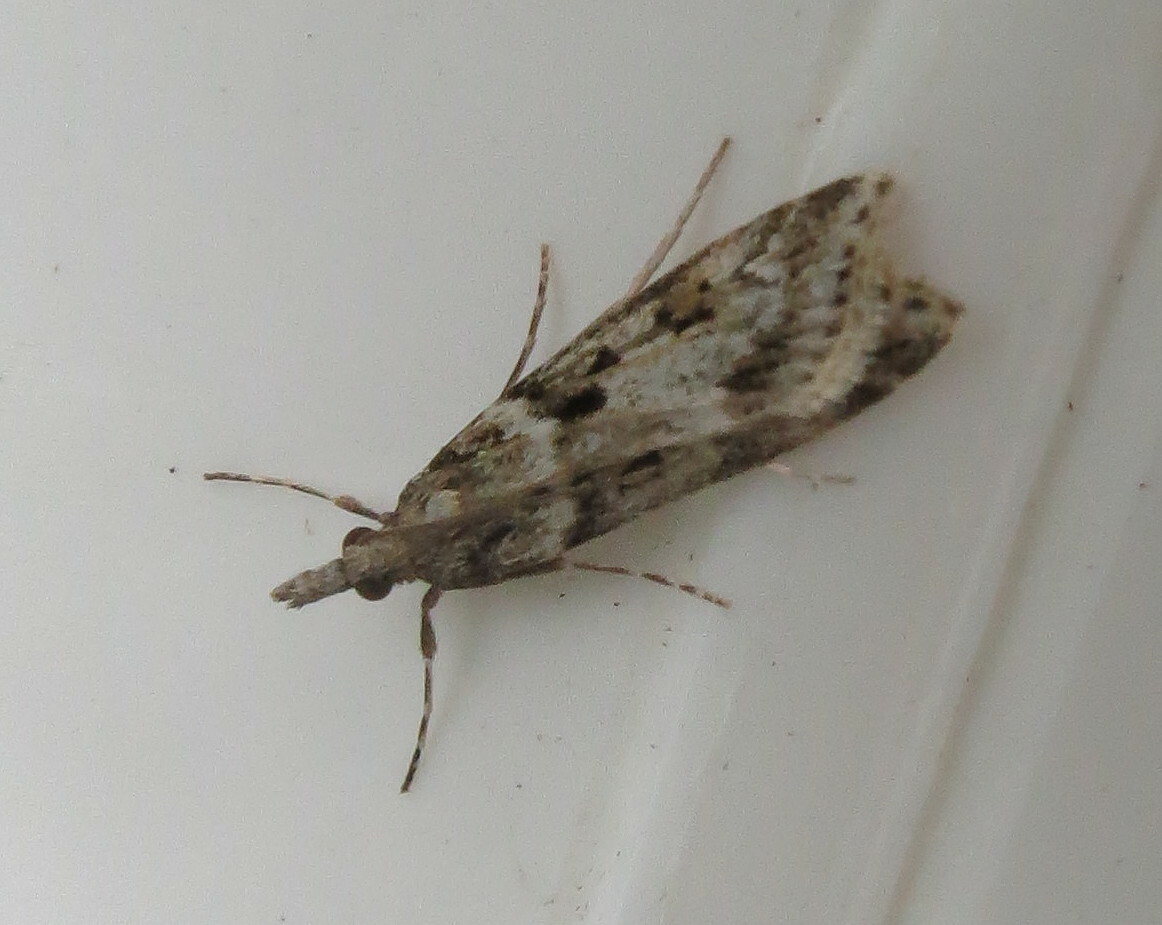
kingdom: Animalia
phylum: Arthropoda
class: Insecta
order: Lepidoptera
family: Crambidae
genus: Eudonia
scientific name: Eudonia angustea
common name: Narrow-winged grey
